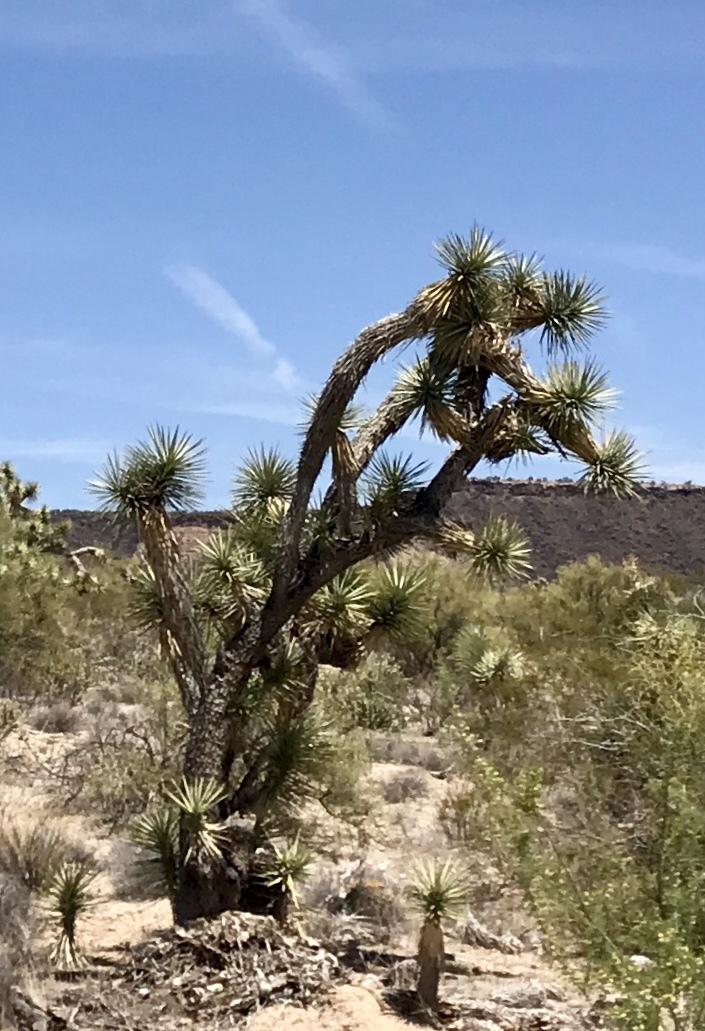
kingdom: Plantae
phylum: Tracheophyta
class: Liliopsida
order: Asparagales
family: Asparagaceae
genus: Yucca
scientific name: Yucca brevifolia
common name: Joshua tree
